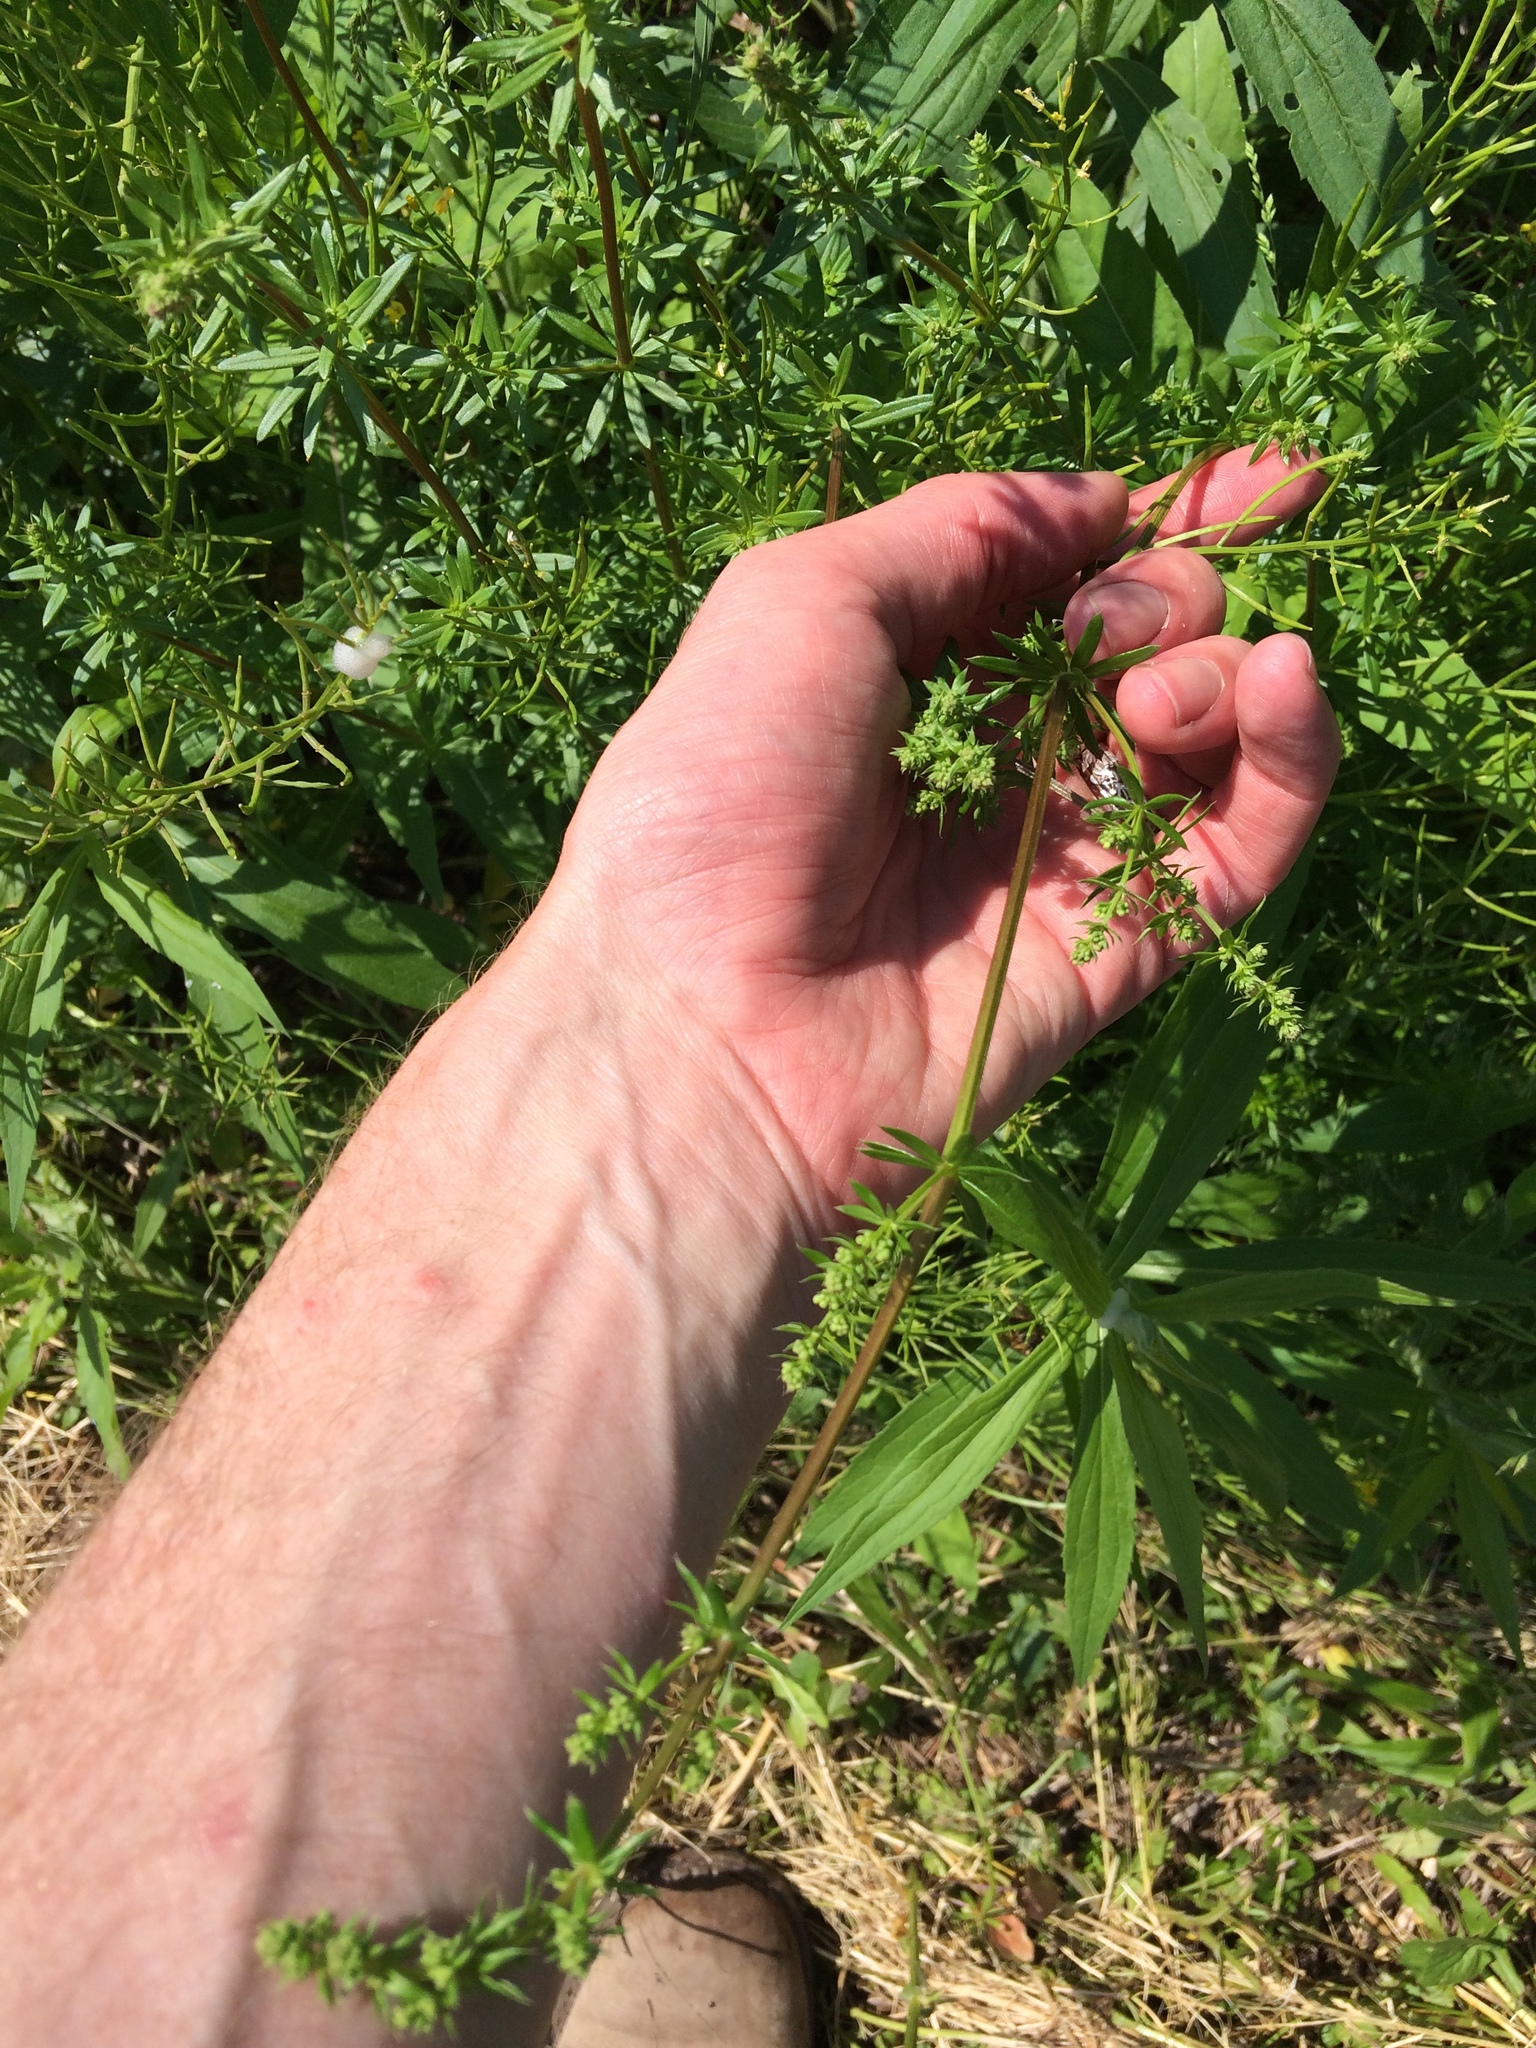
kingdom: Plantae
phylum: Tracheophyta
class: Magnoliopsida
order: Gentianales
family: Rubiaceae
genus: Galium
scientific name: Galium mollugo
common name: Hedge bedstraw
